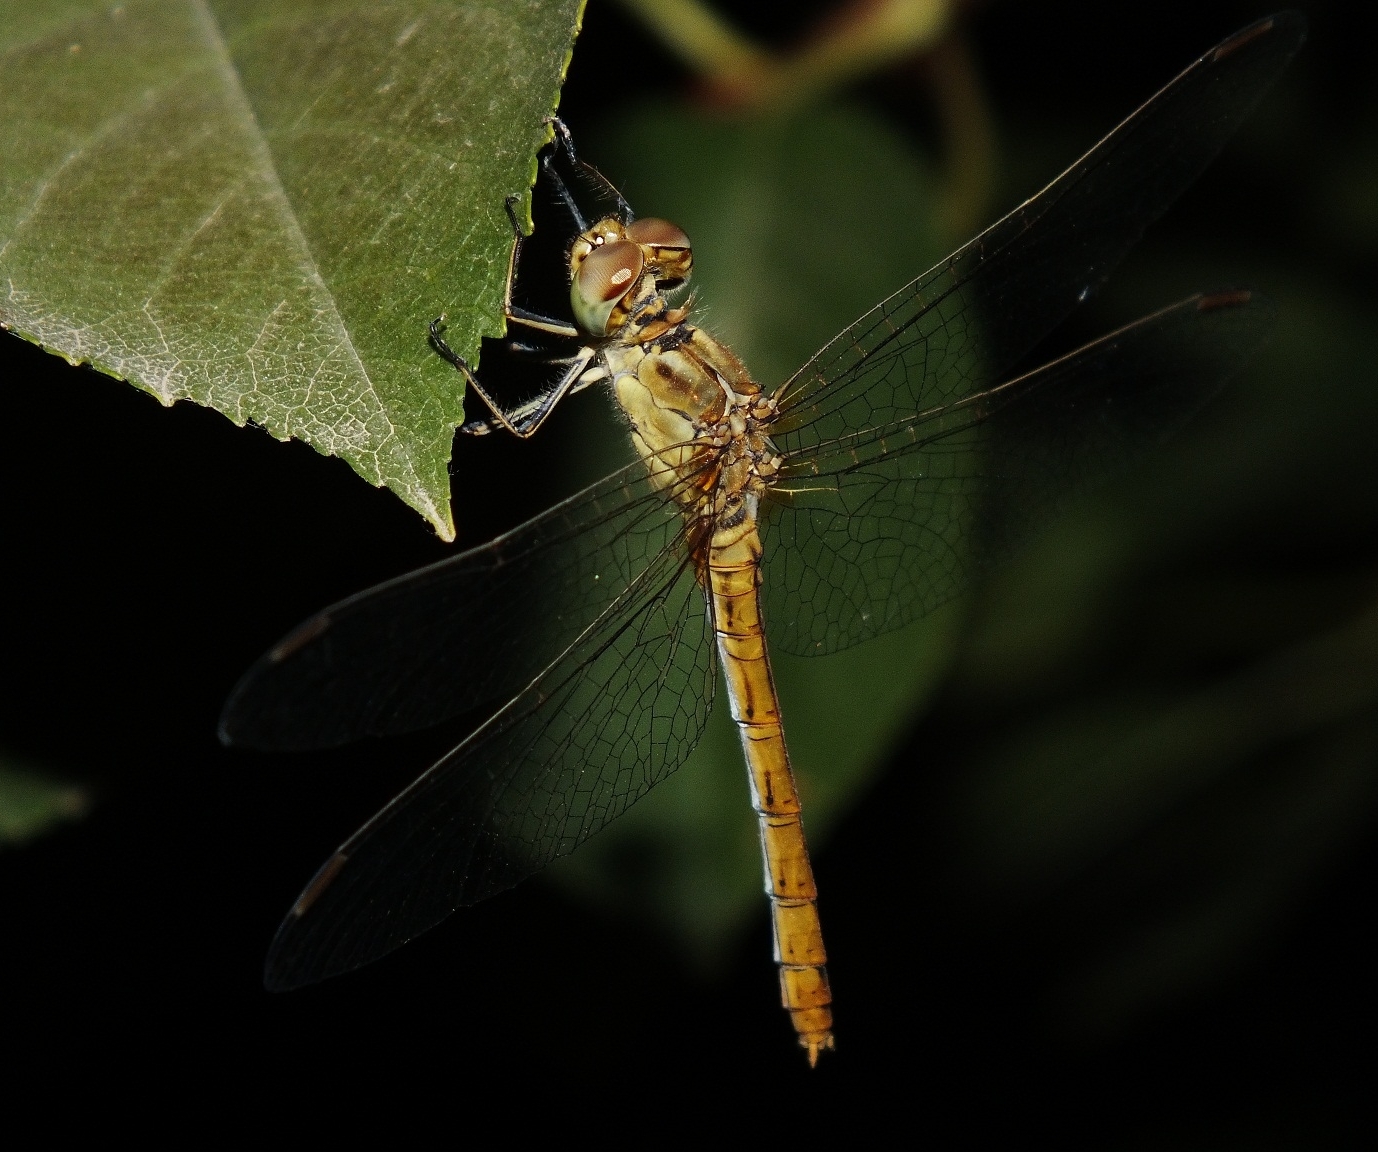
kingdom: Animalia
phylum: Arthropoda
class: Insecta
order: Odonata
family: Libellulidae
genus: Sympetrum
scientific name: Sympetrum meridionale
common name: Southern darter
